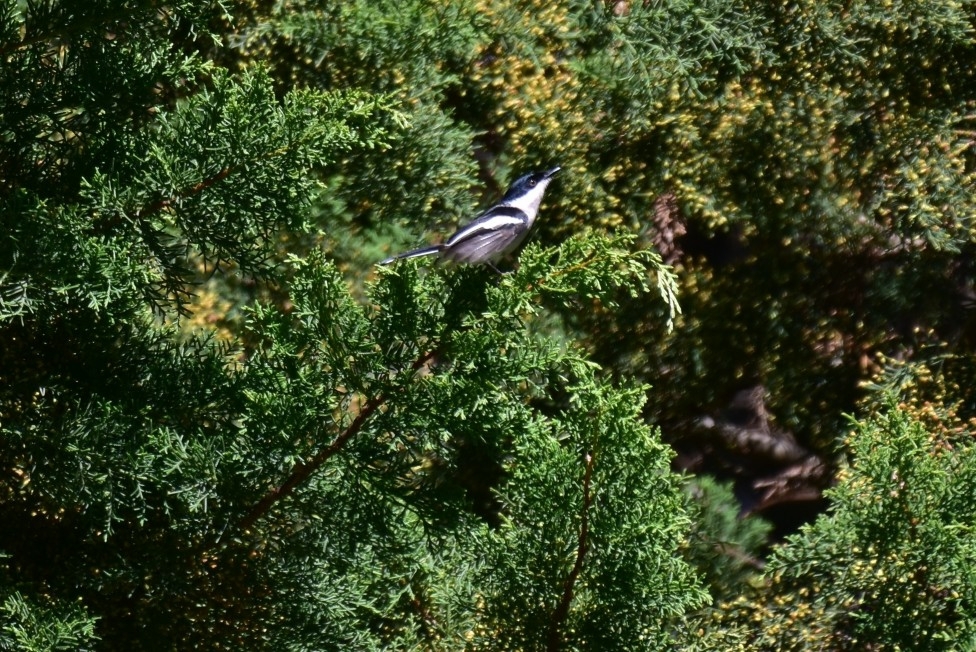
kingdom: Animalia
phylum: Chordata
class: Aves
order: Passeriformes
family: Tephrodornithidae
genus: Hemipus
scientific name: Hemipus picatus
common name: Bar-winged flycatcher-shrike
